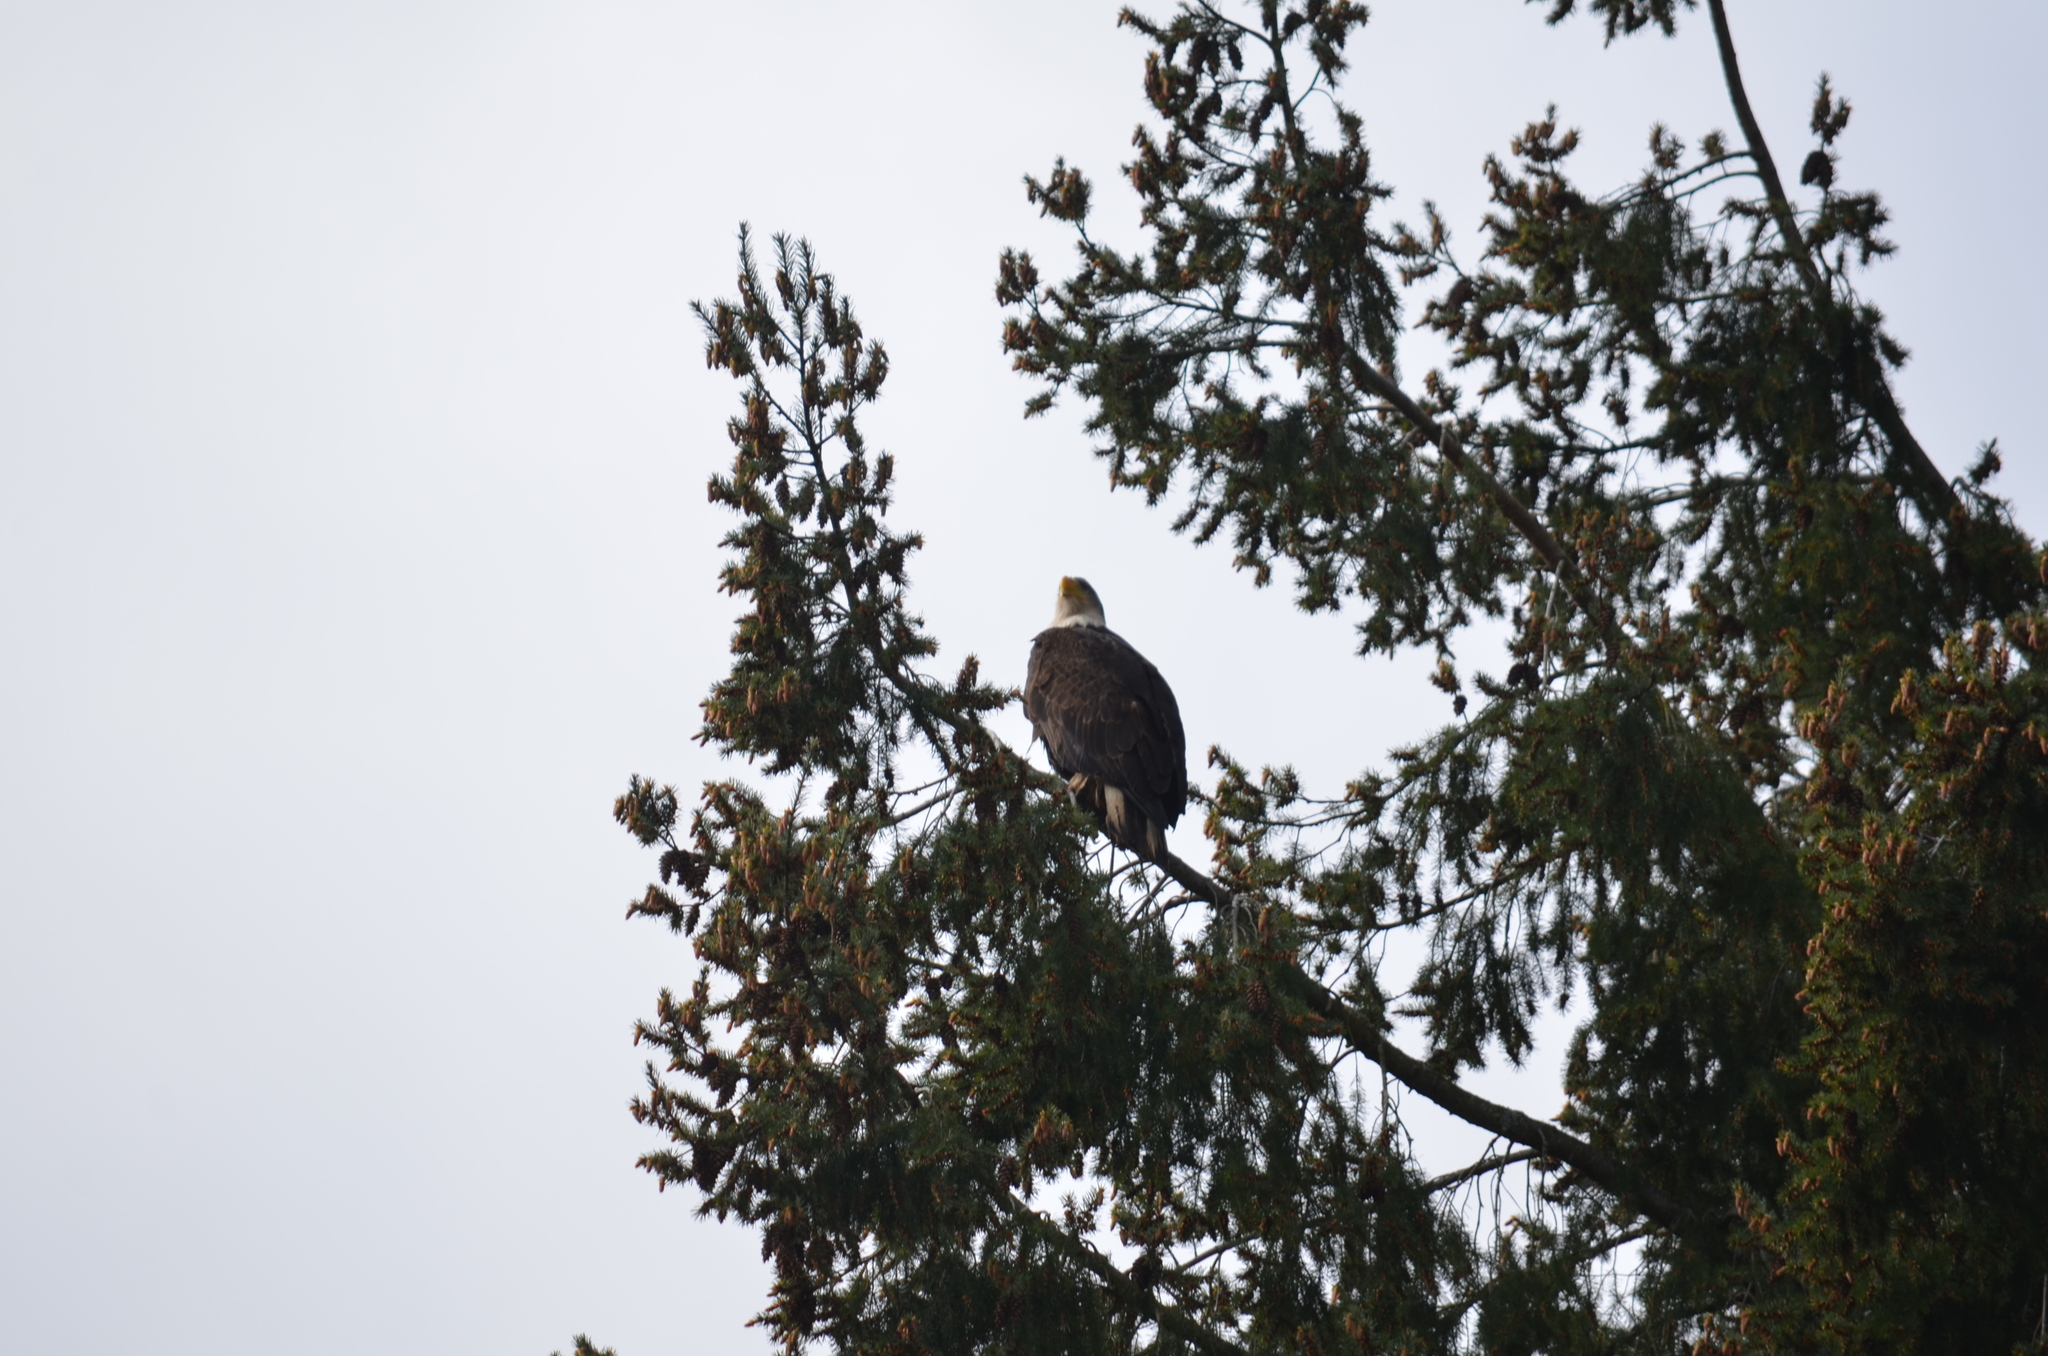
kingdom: Animalia
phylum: Chordata
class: Aves
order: Accipitriformes
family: Accipitridae
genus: Haliaeetus
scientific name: Haliaeetus leucocephalus
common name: Bald eagle
